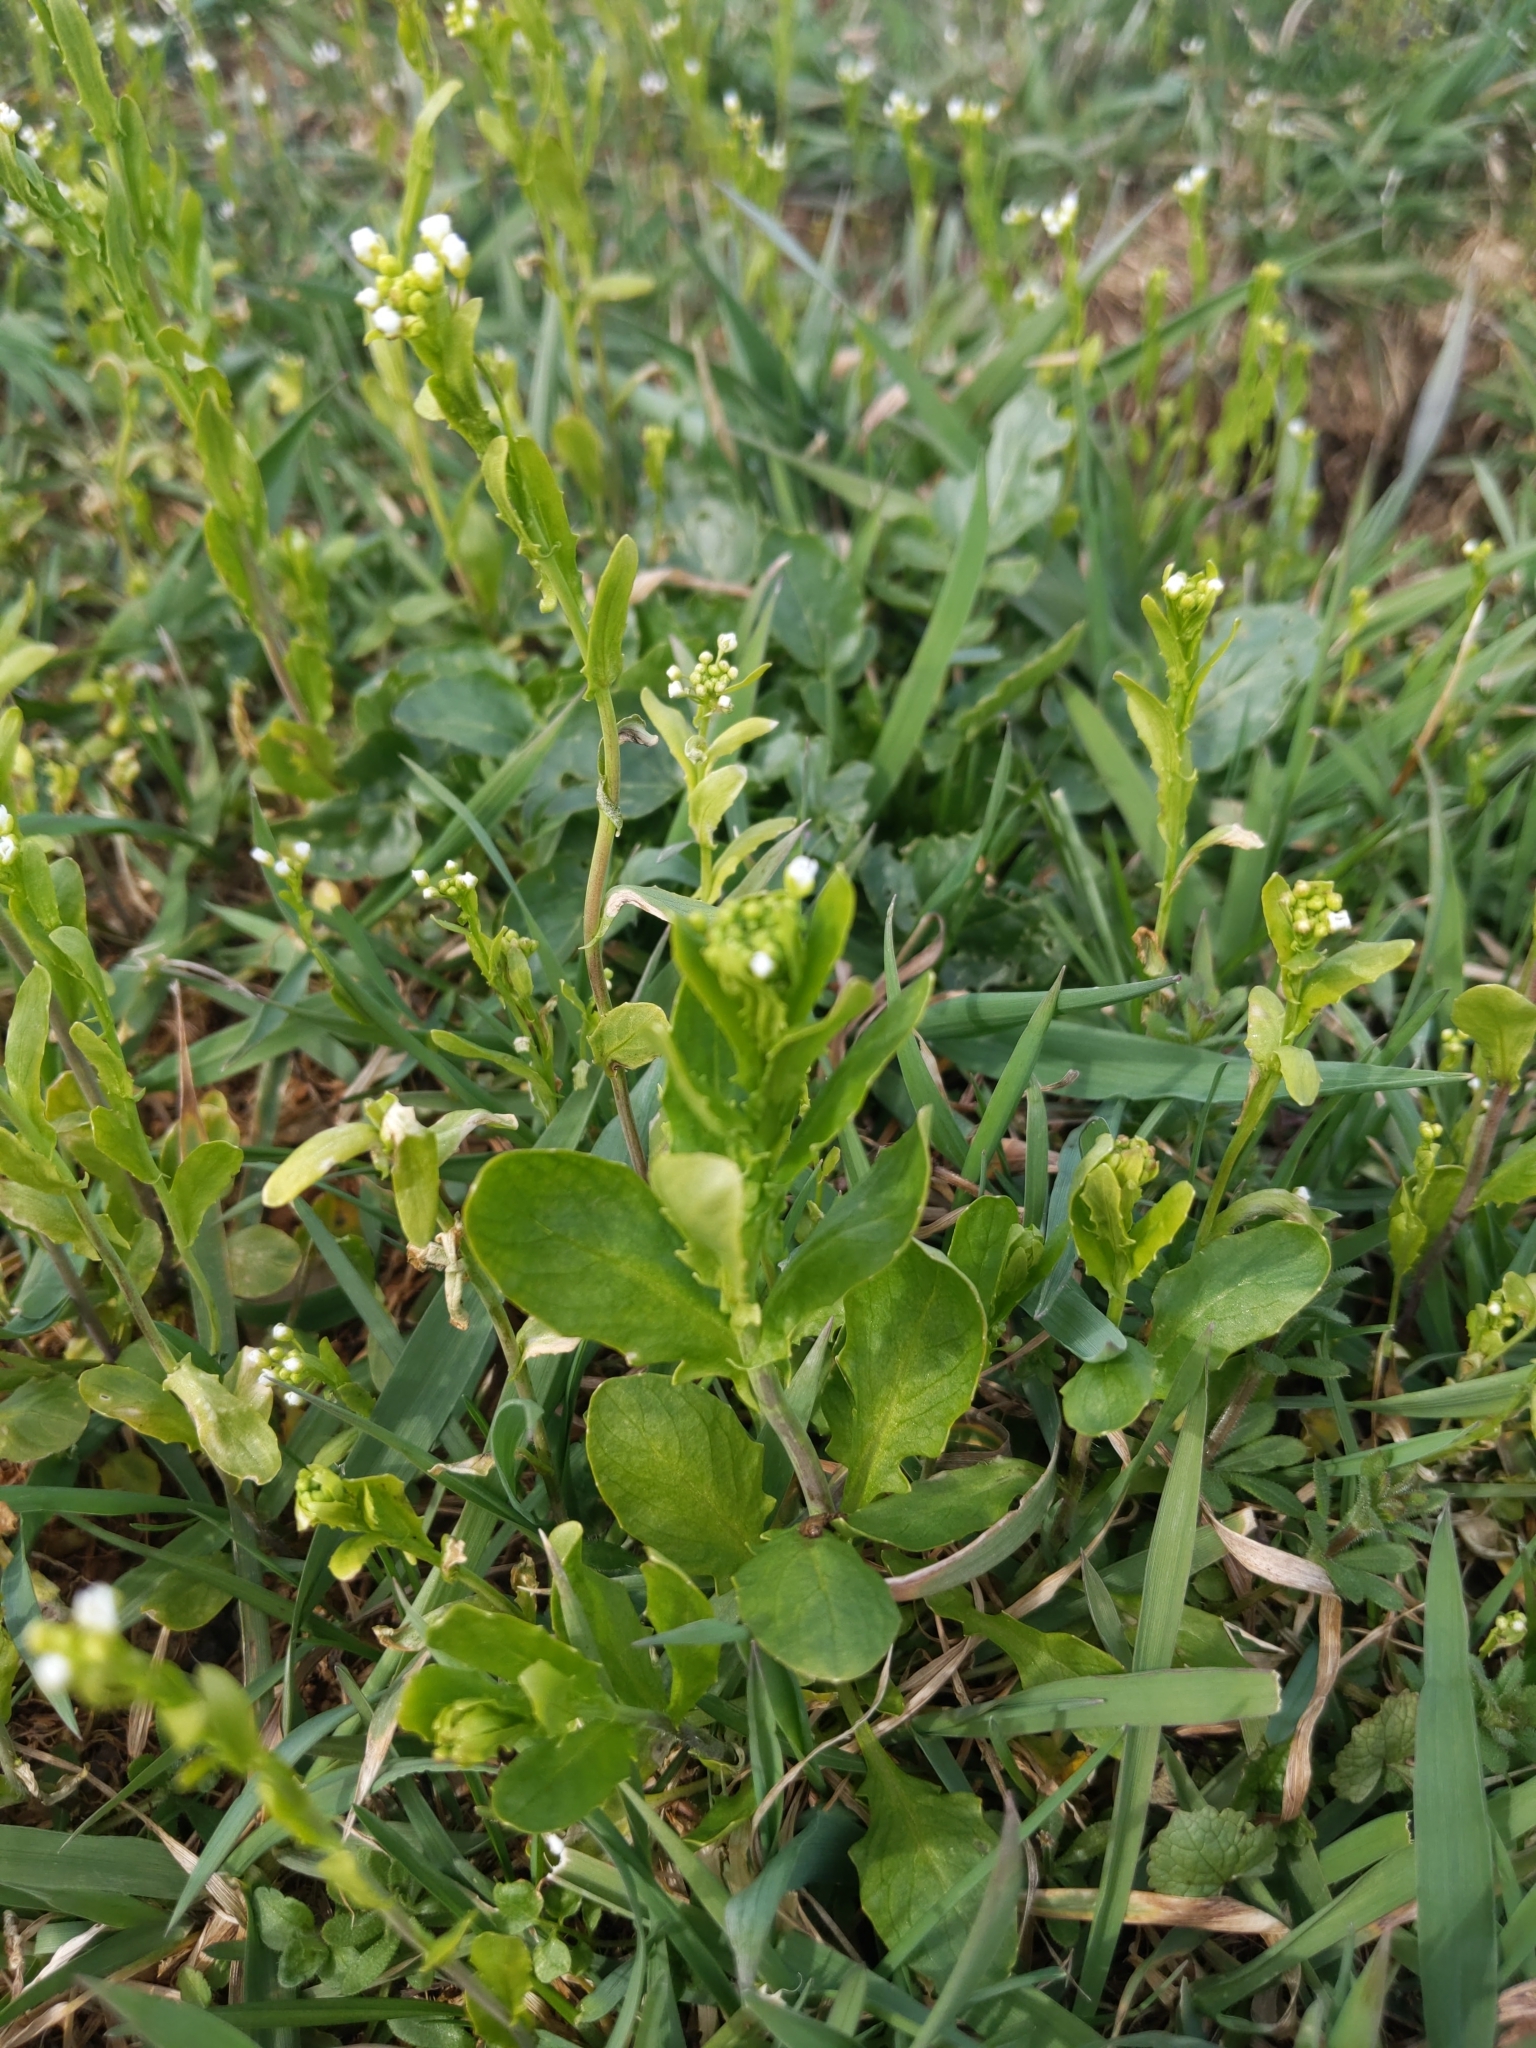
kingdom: Plantae
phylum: Tracheophyta
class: Magnoliopsida
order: Brassicales
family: Brassicaceae
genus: Mummenhoffia
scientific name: Mummenhoffia alliacea
